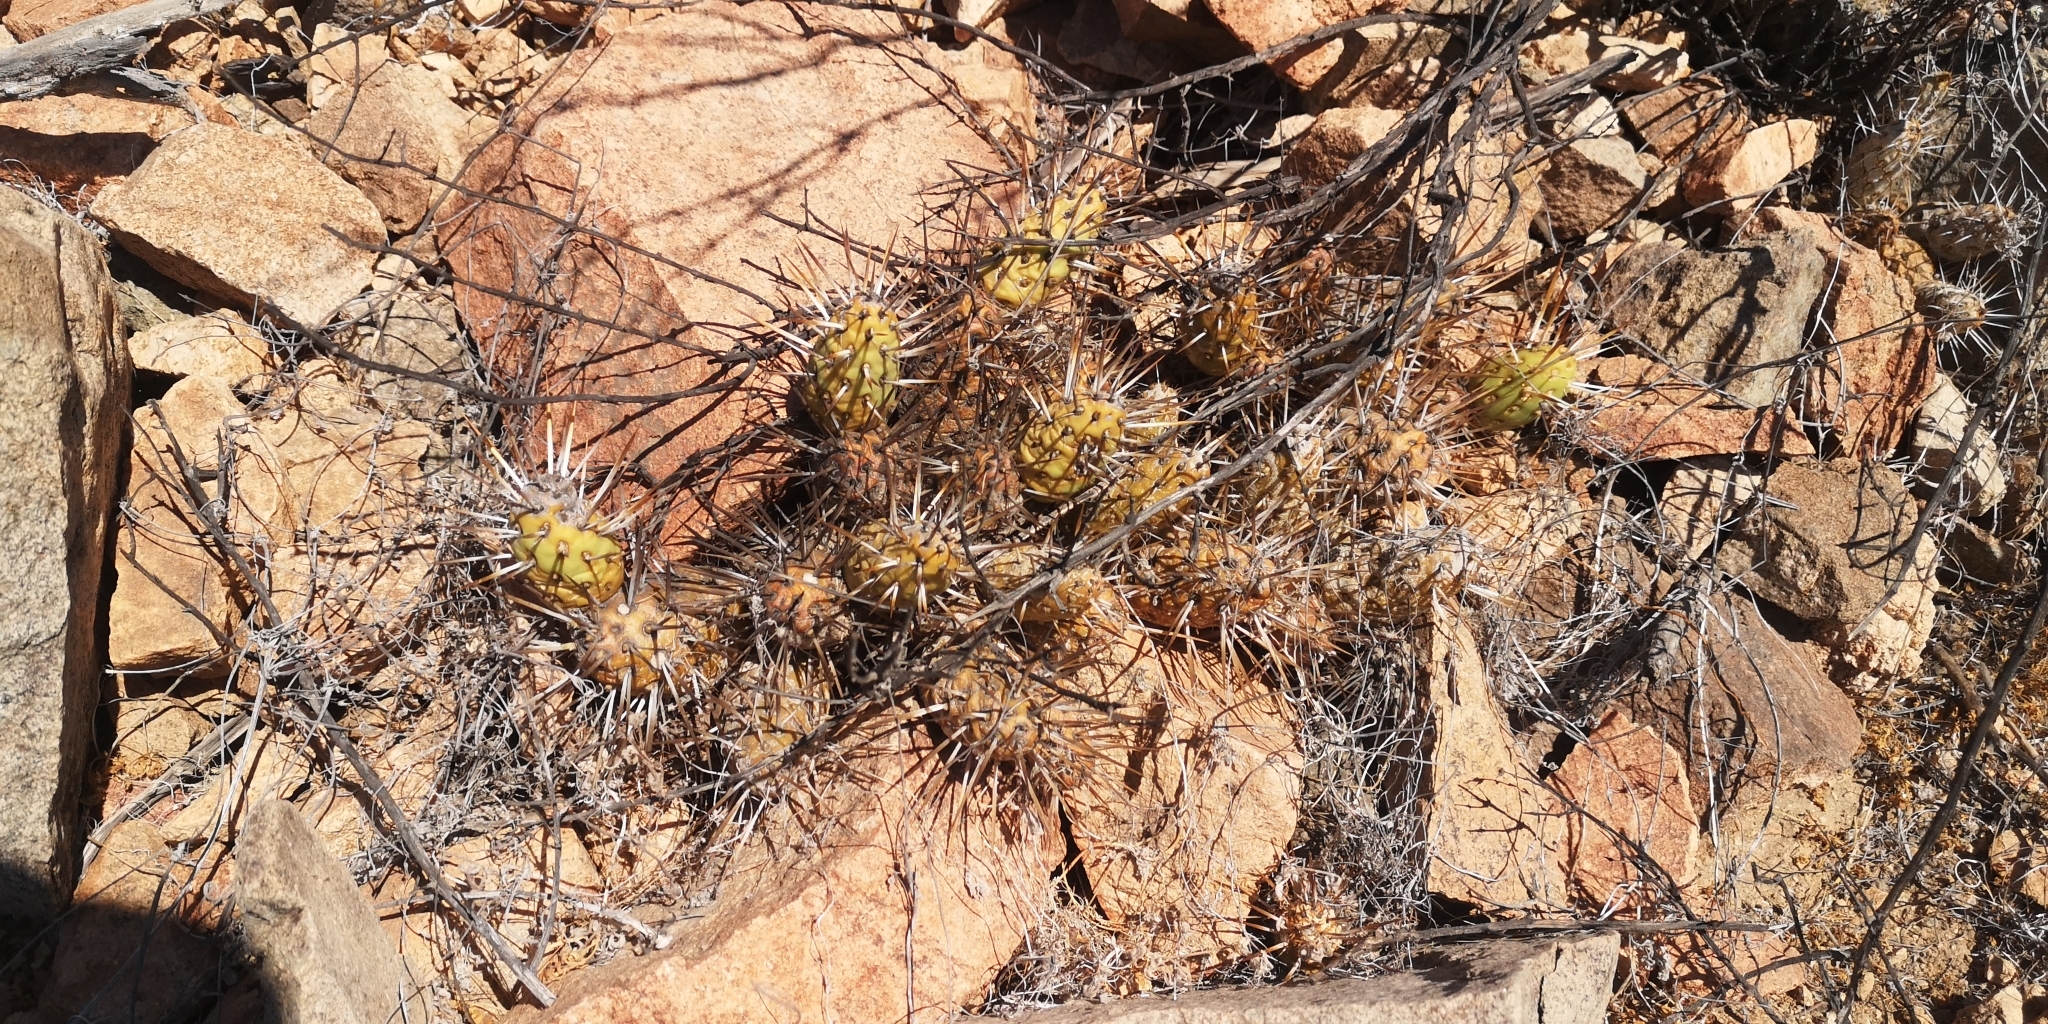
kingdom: Plantae
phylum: Tracheophyta
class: Magnoliopsida
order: Caryophyllales
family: Cactaceae
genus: Maihueniopsis
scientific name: Maihueniopsis crassispina
